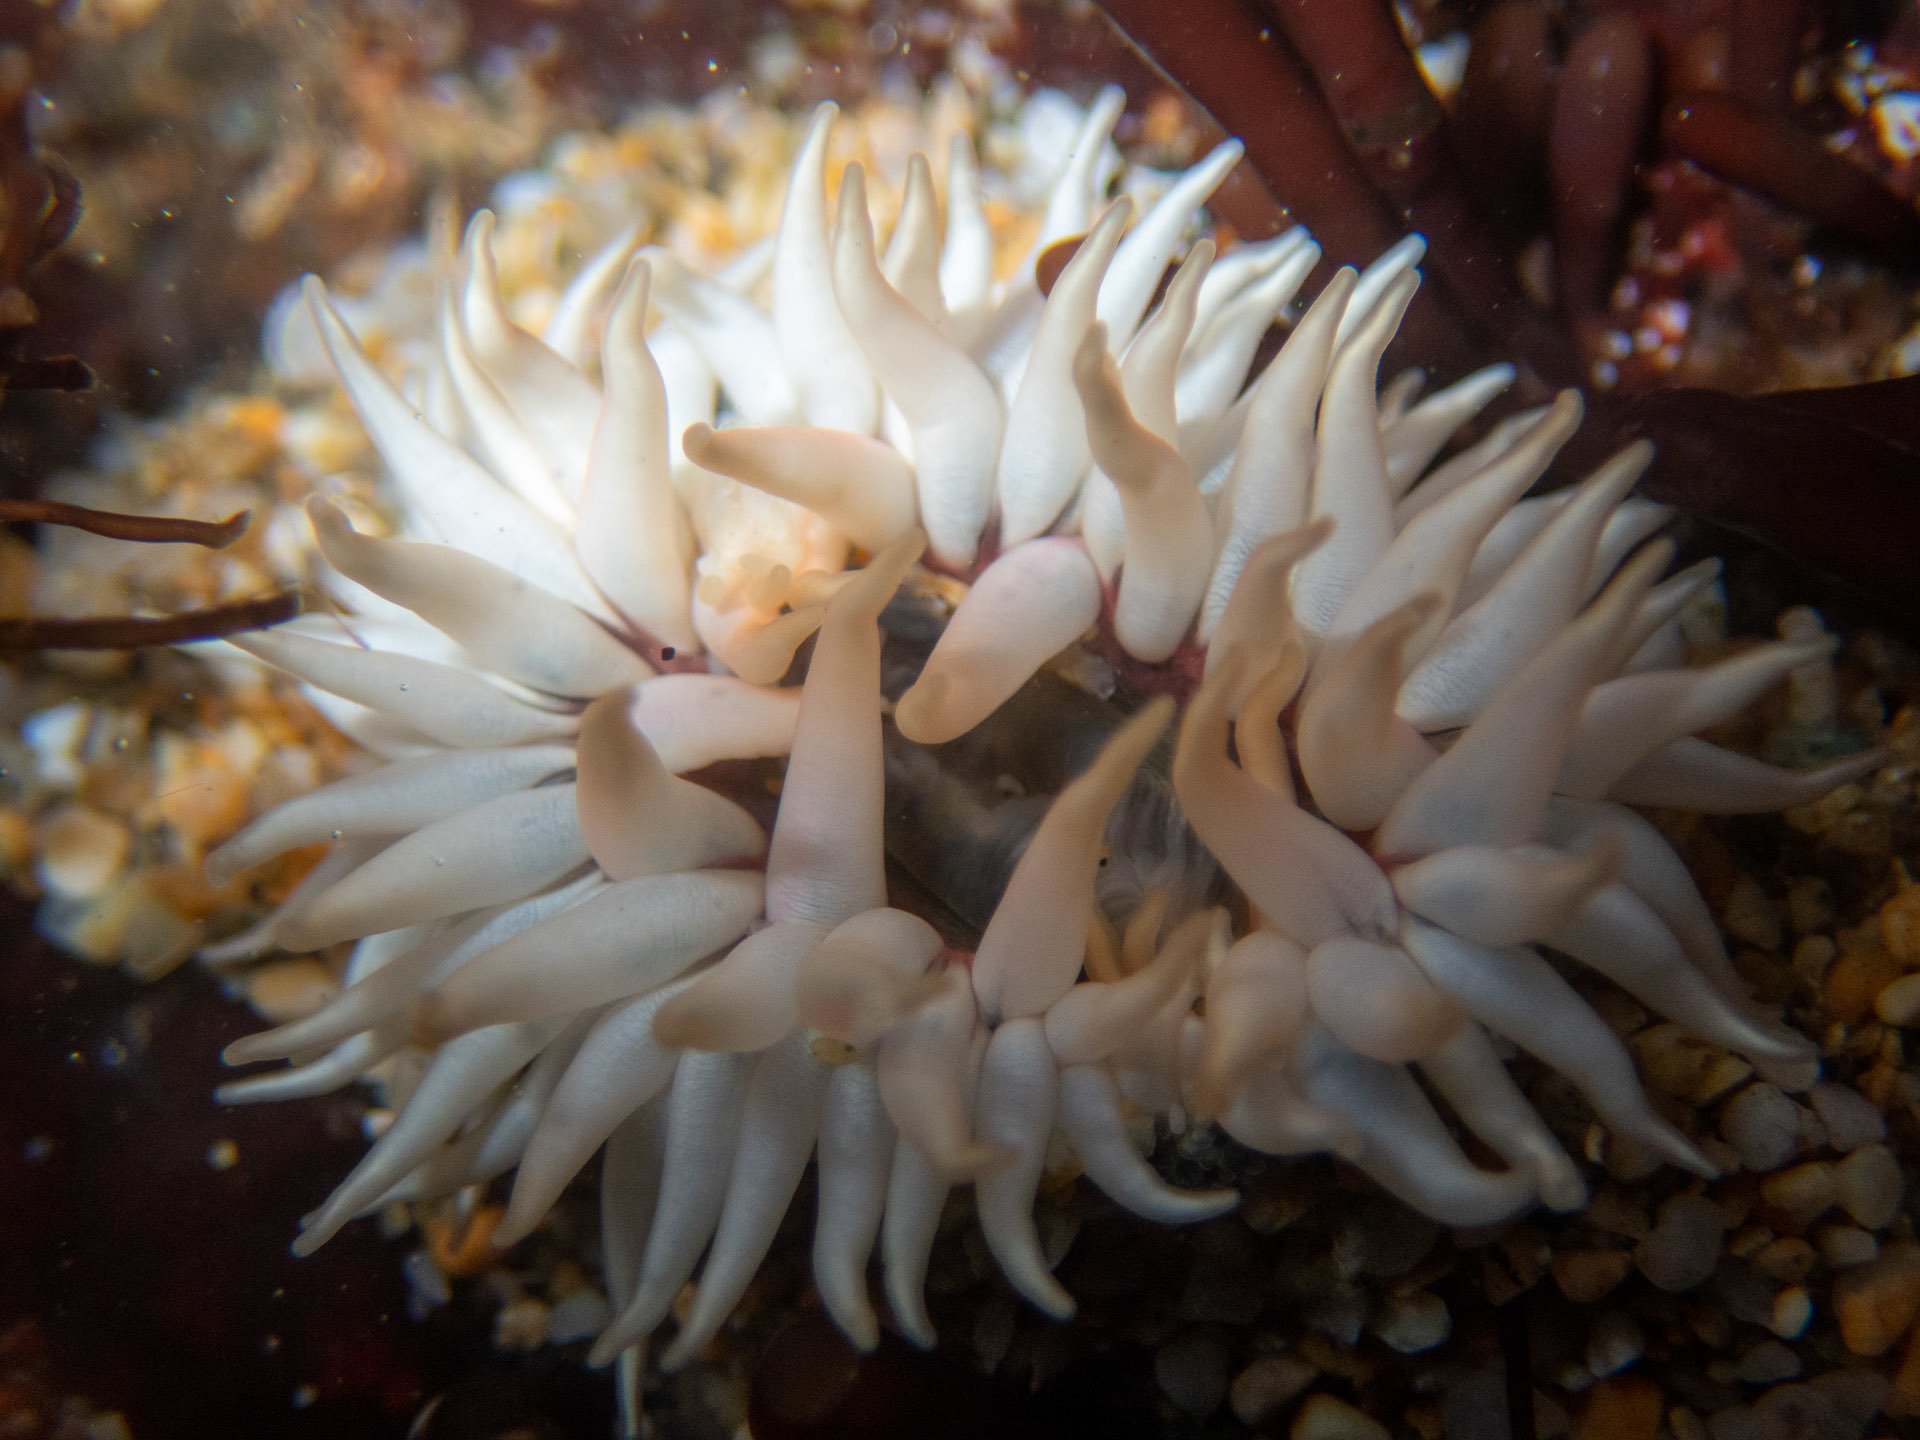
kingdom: Animalia
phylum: Cnidaria
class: Anthozoa
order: Actiniaria
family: Actiniidae
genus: Anthopleura
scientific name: Anthopleura artemisia
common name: Buried sea anemone
